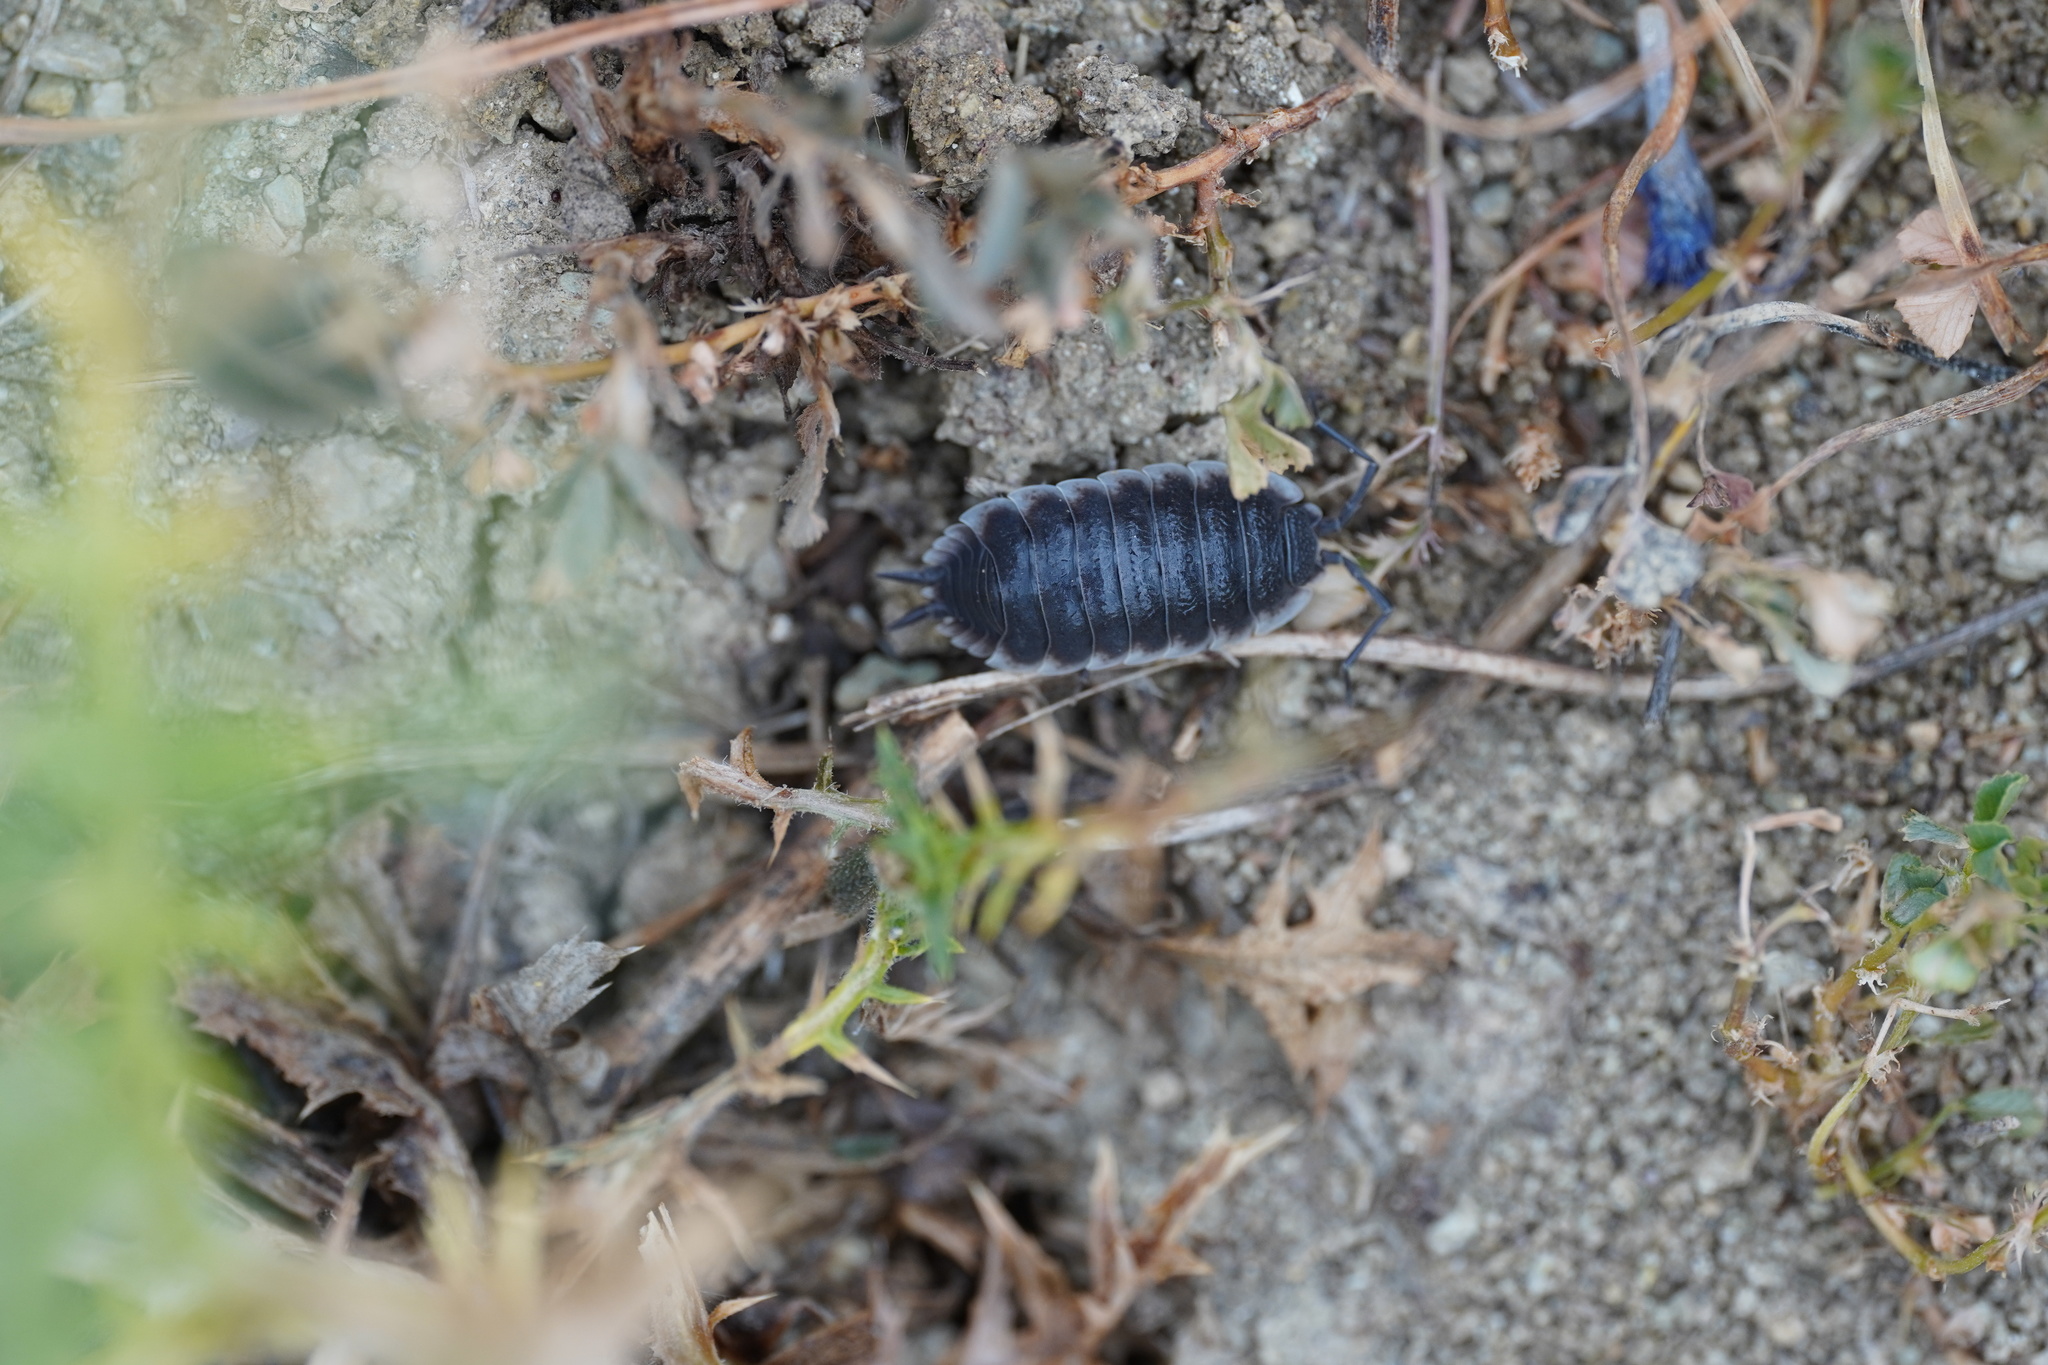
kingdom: Animalia
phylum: Arthropoda
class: Malacostraca
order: Isopoda
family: Porcellionidae
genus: Porcellio
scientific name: Porcellio hoffmannseggii
